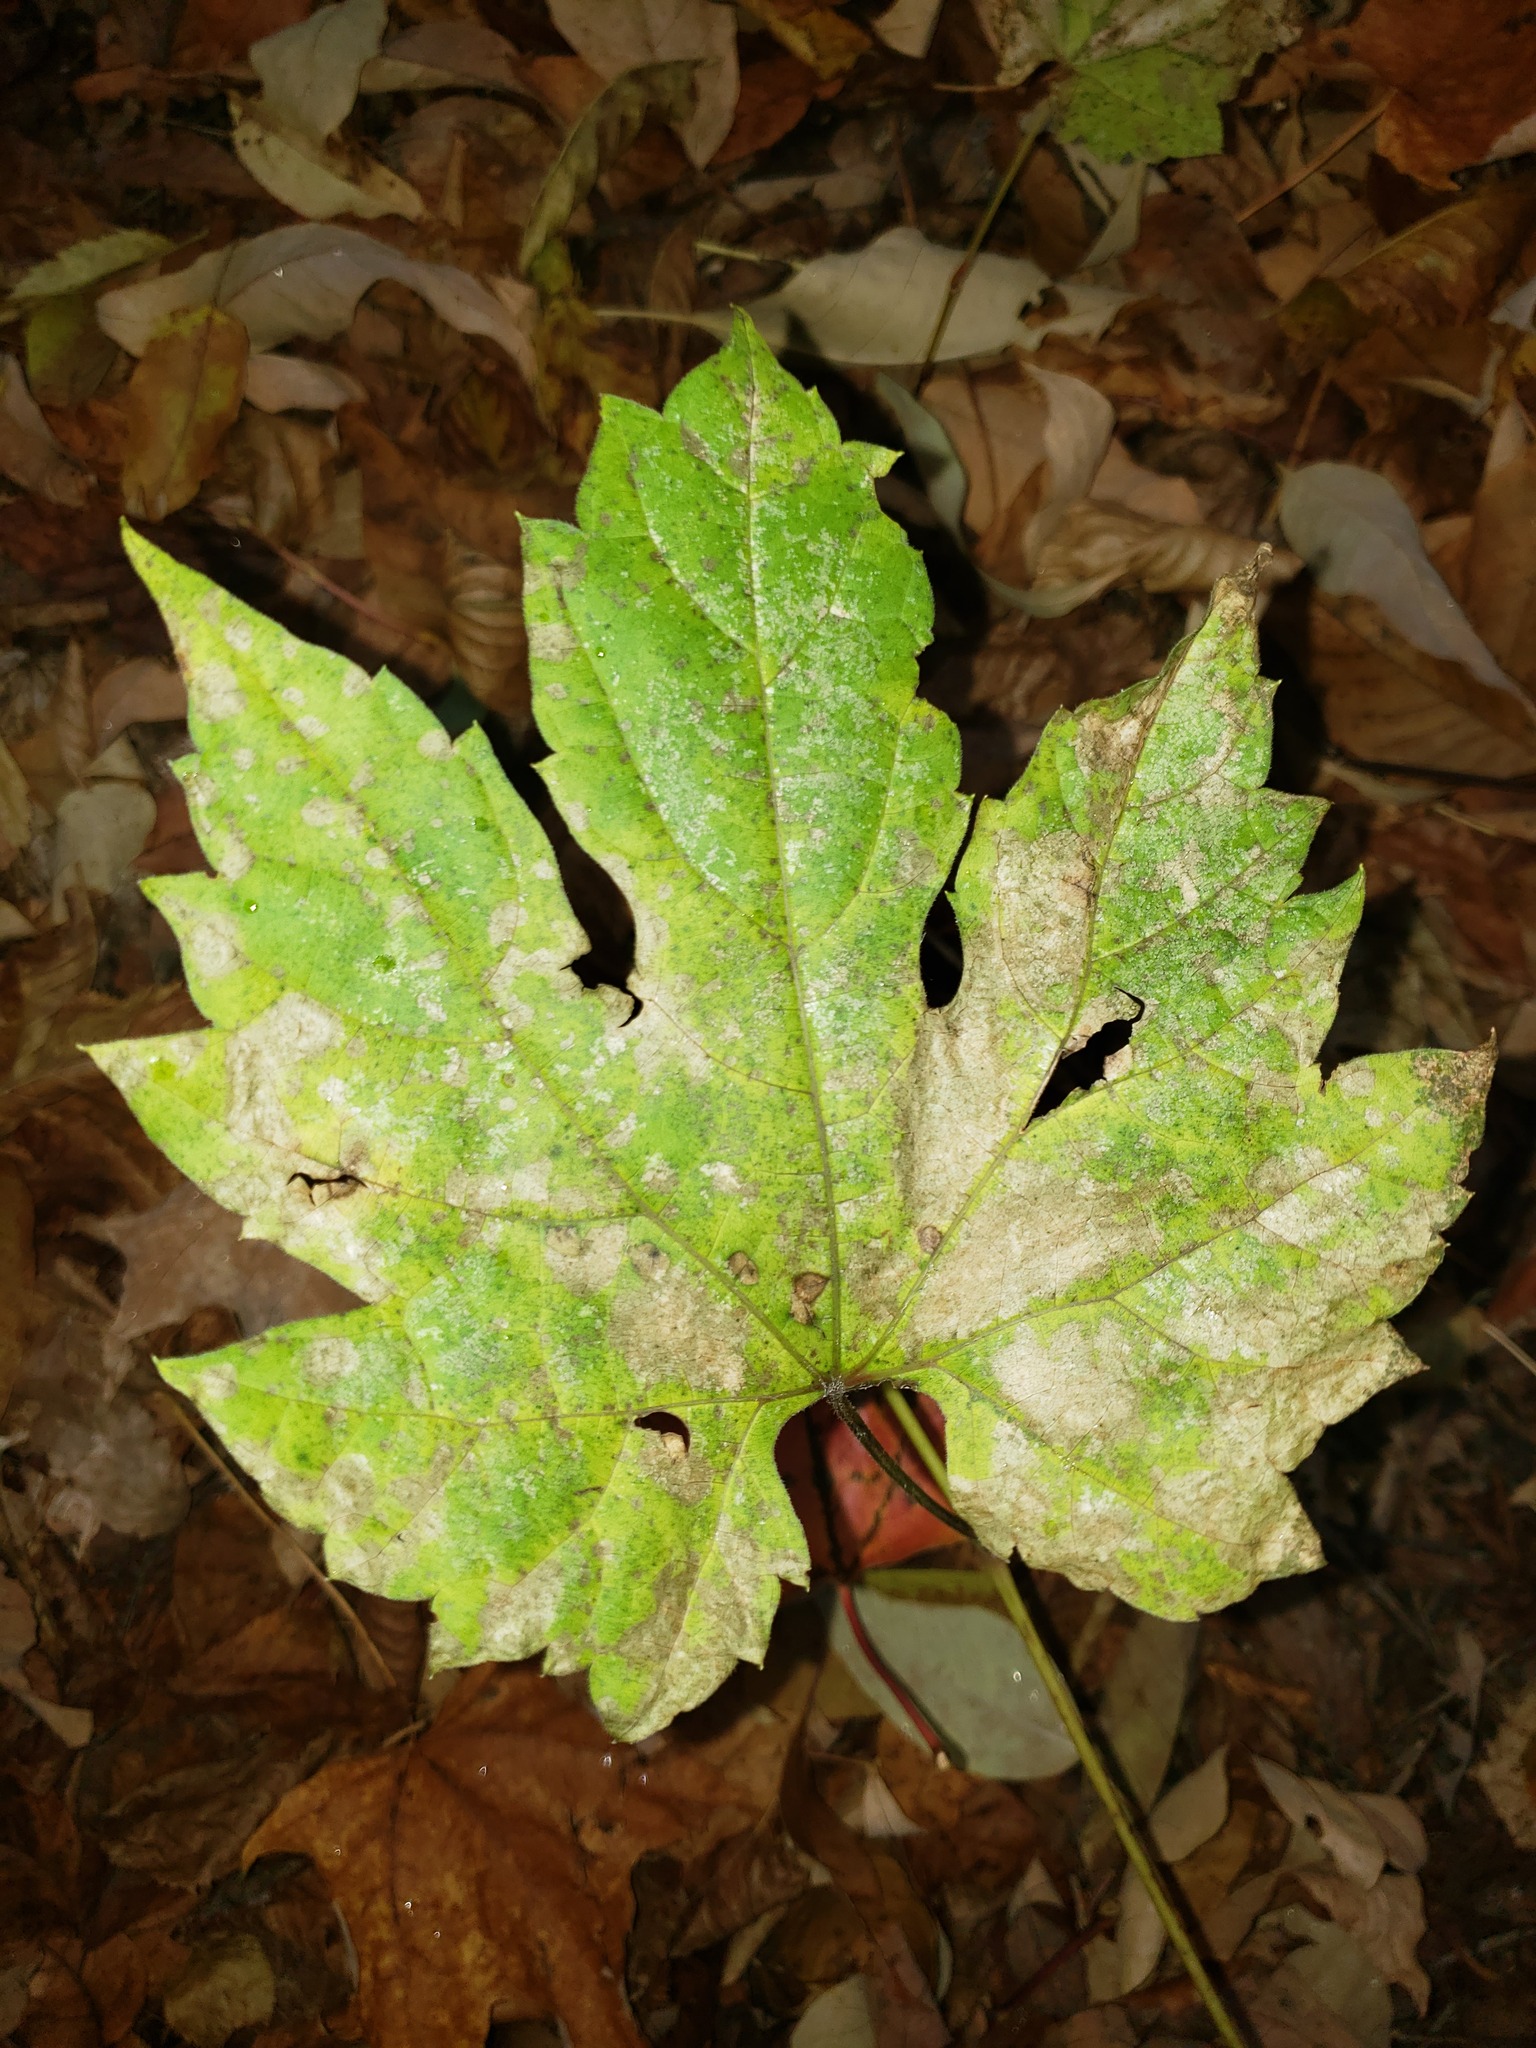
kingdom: Plantae
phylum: Tracheophyta
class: Magnoliopsida
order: Vitales
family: Vitaceae
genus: Vitis
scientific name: Vitis riparia
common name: Frost grape
